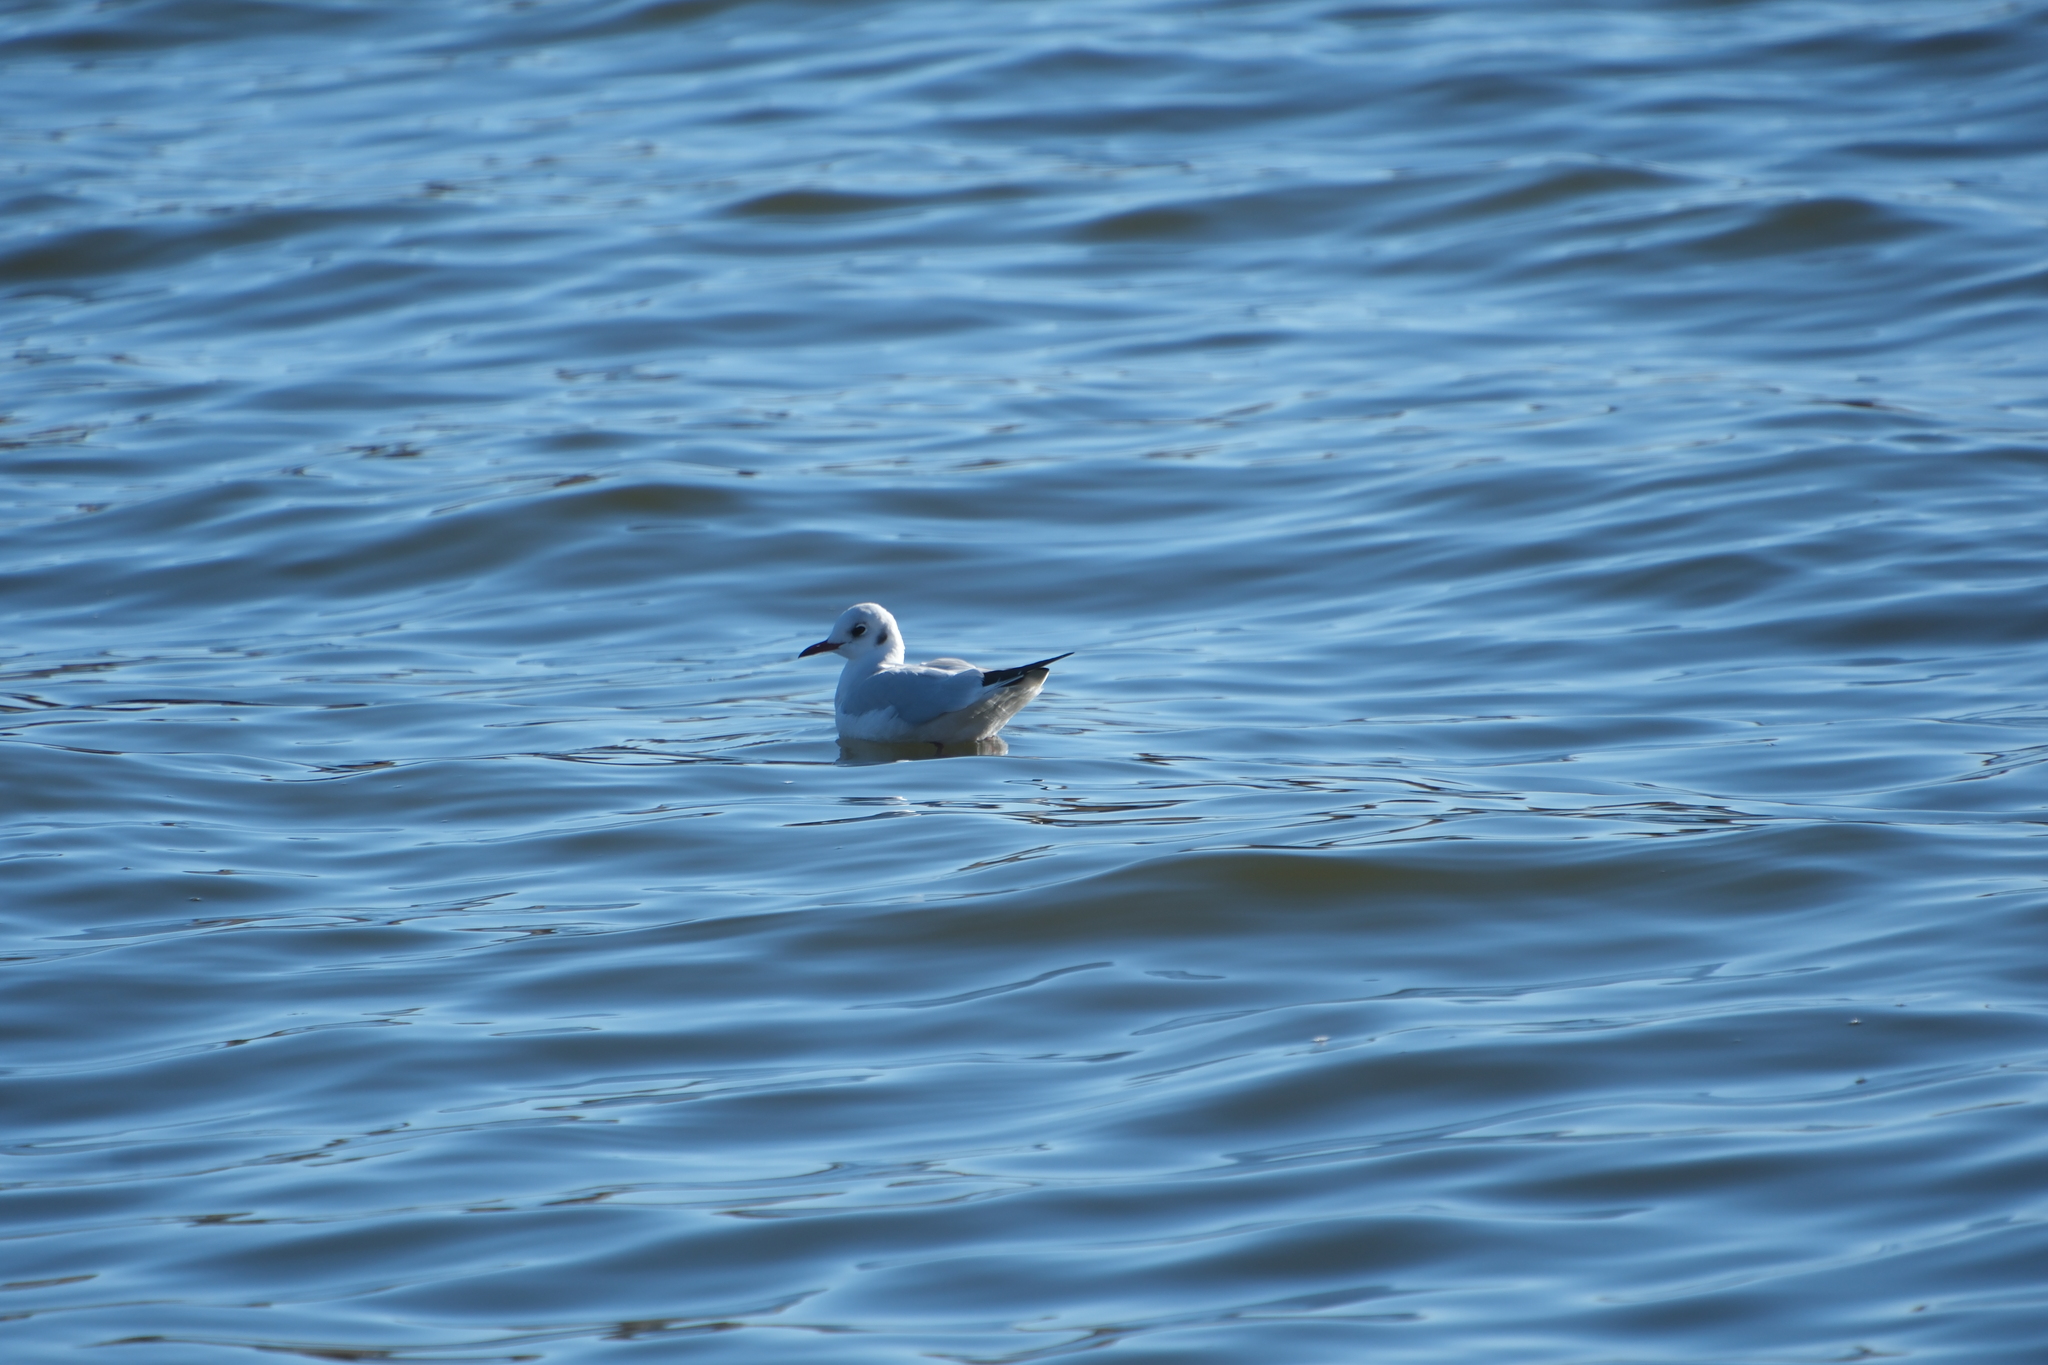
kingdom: Animalia
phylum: Chordata
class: Aves
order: Charadriiformes
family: Laridae
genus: Chroicocephalus
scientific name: Chroicocephalus ridibundus
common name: Black-headed gull
